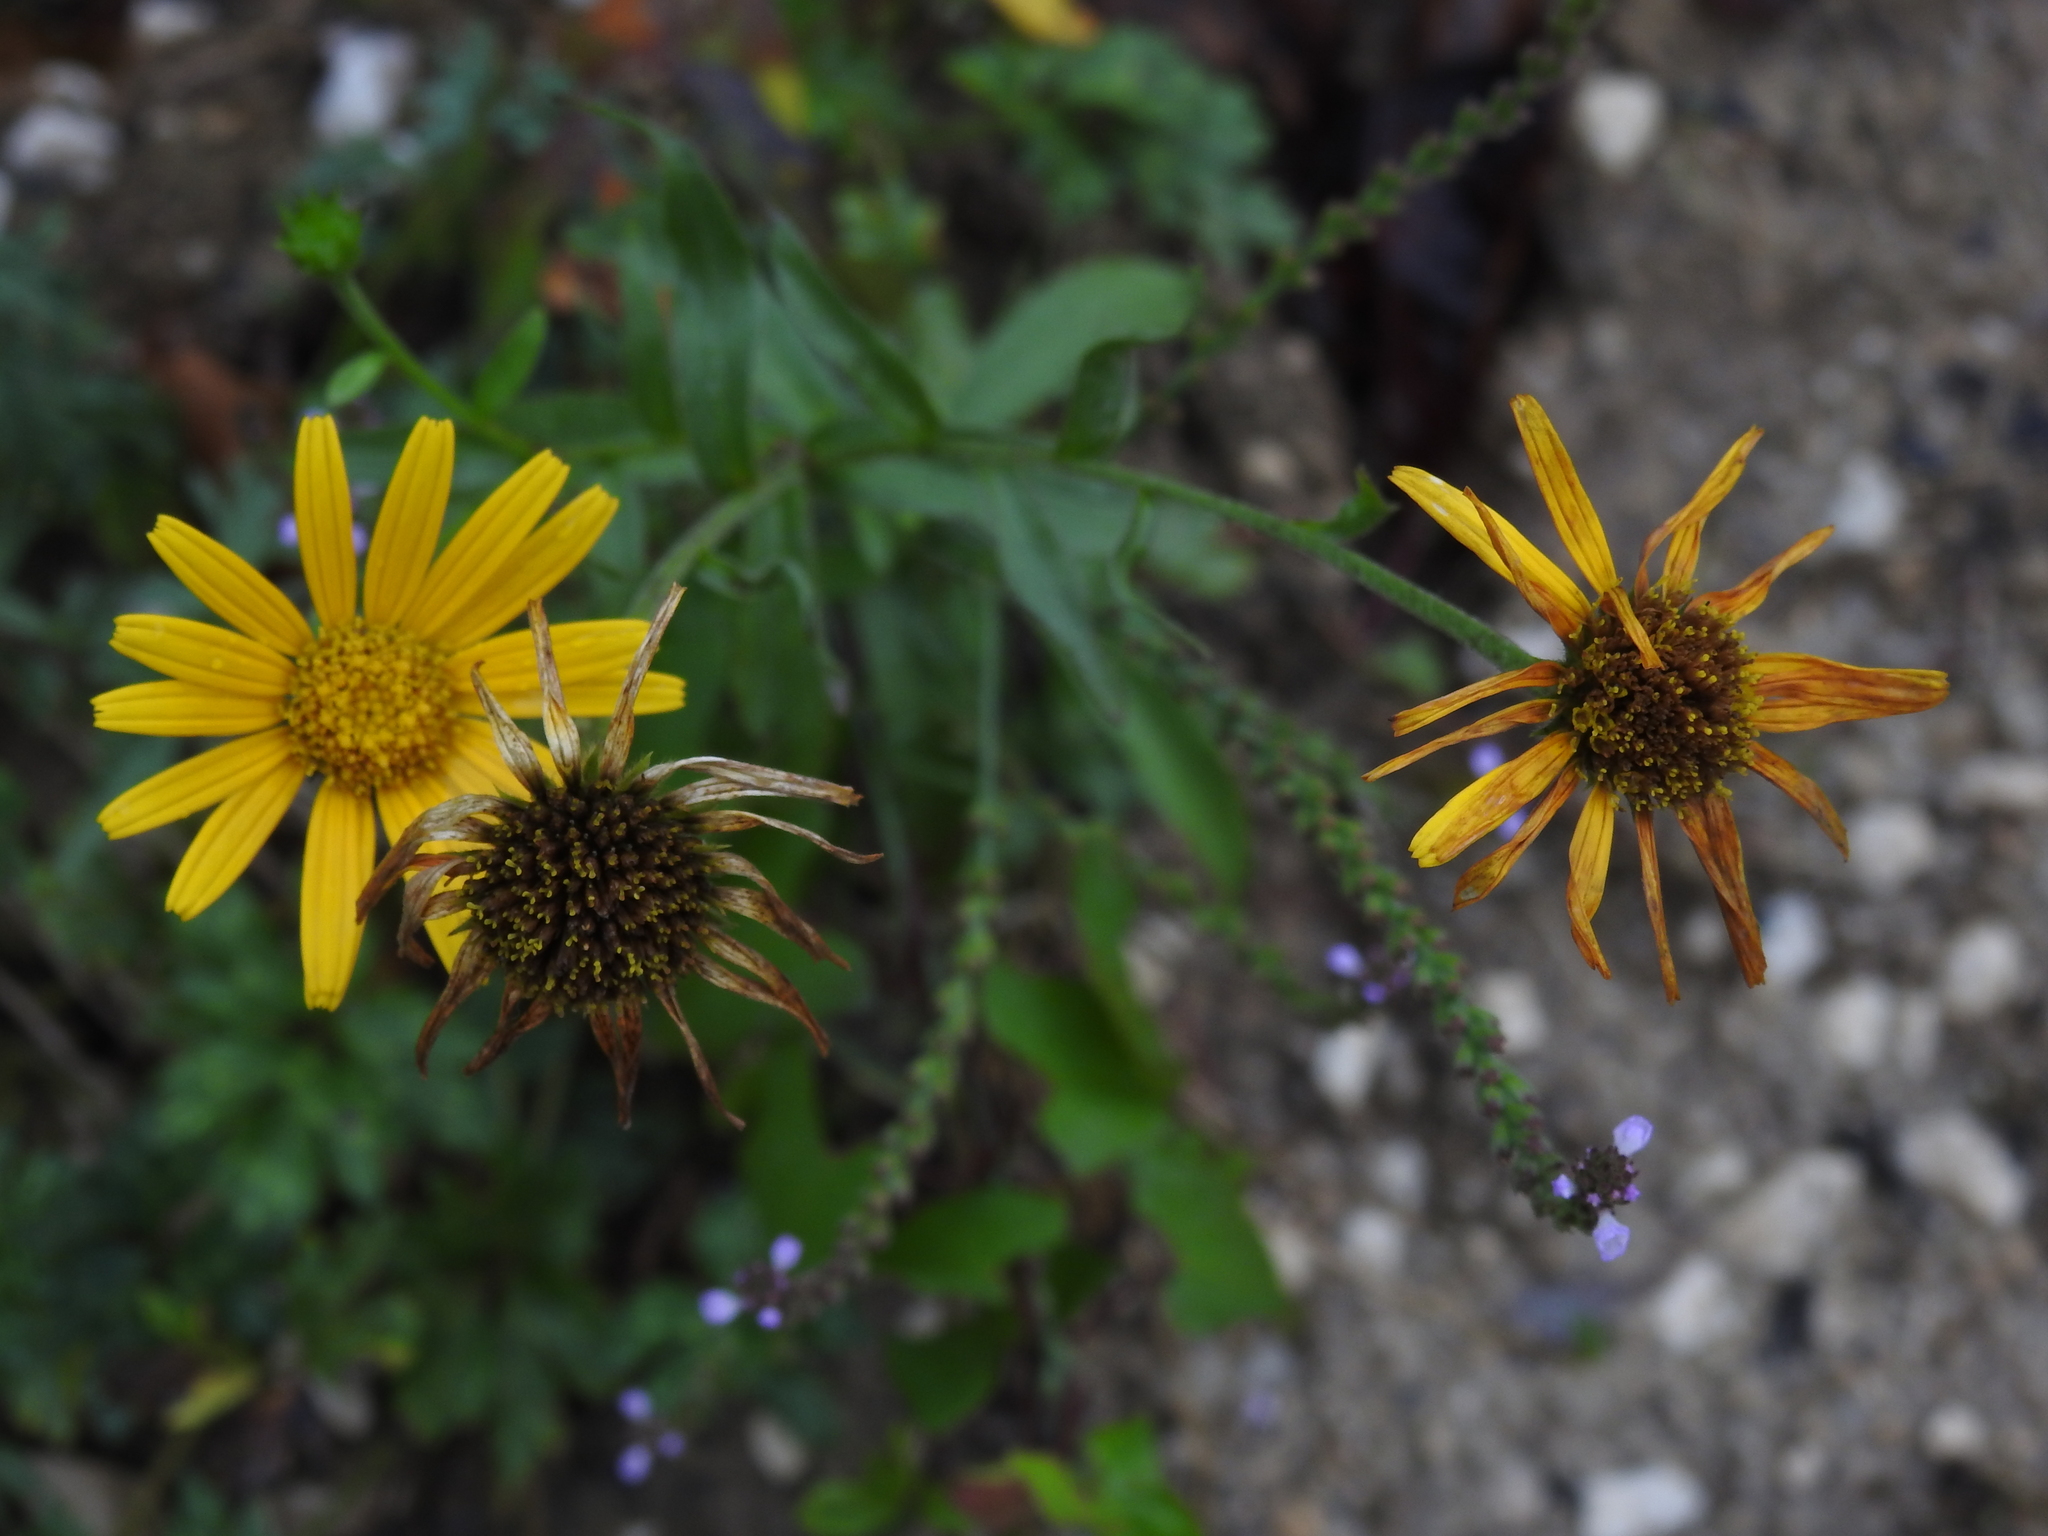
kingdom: Plantae
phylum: Tracheophyta
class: Magnoliopsida
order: Asterales
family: Asteraceae
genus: Buphthalmum
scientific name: Buphthalmum salicifolium
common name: Willow-leaved yellow-oxeye
